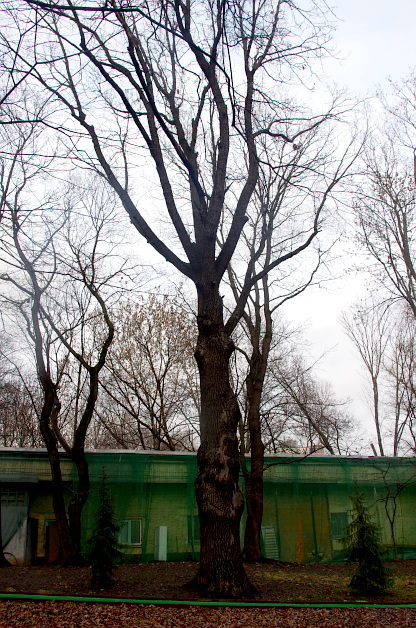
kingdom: Plantae
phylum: Tracheophyta
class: Magnoliopsida
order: Fagales
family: Fagaceae
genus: Quercus
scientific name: Quercus robur
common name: Pedunculate oak
